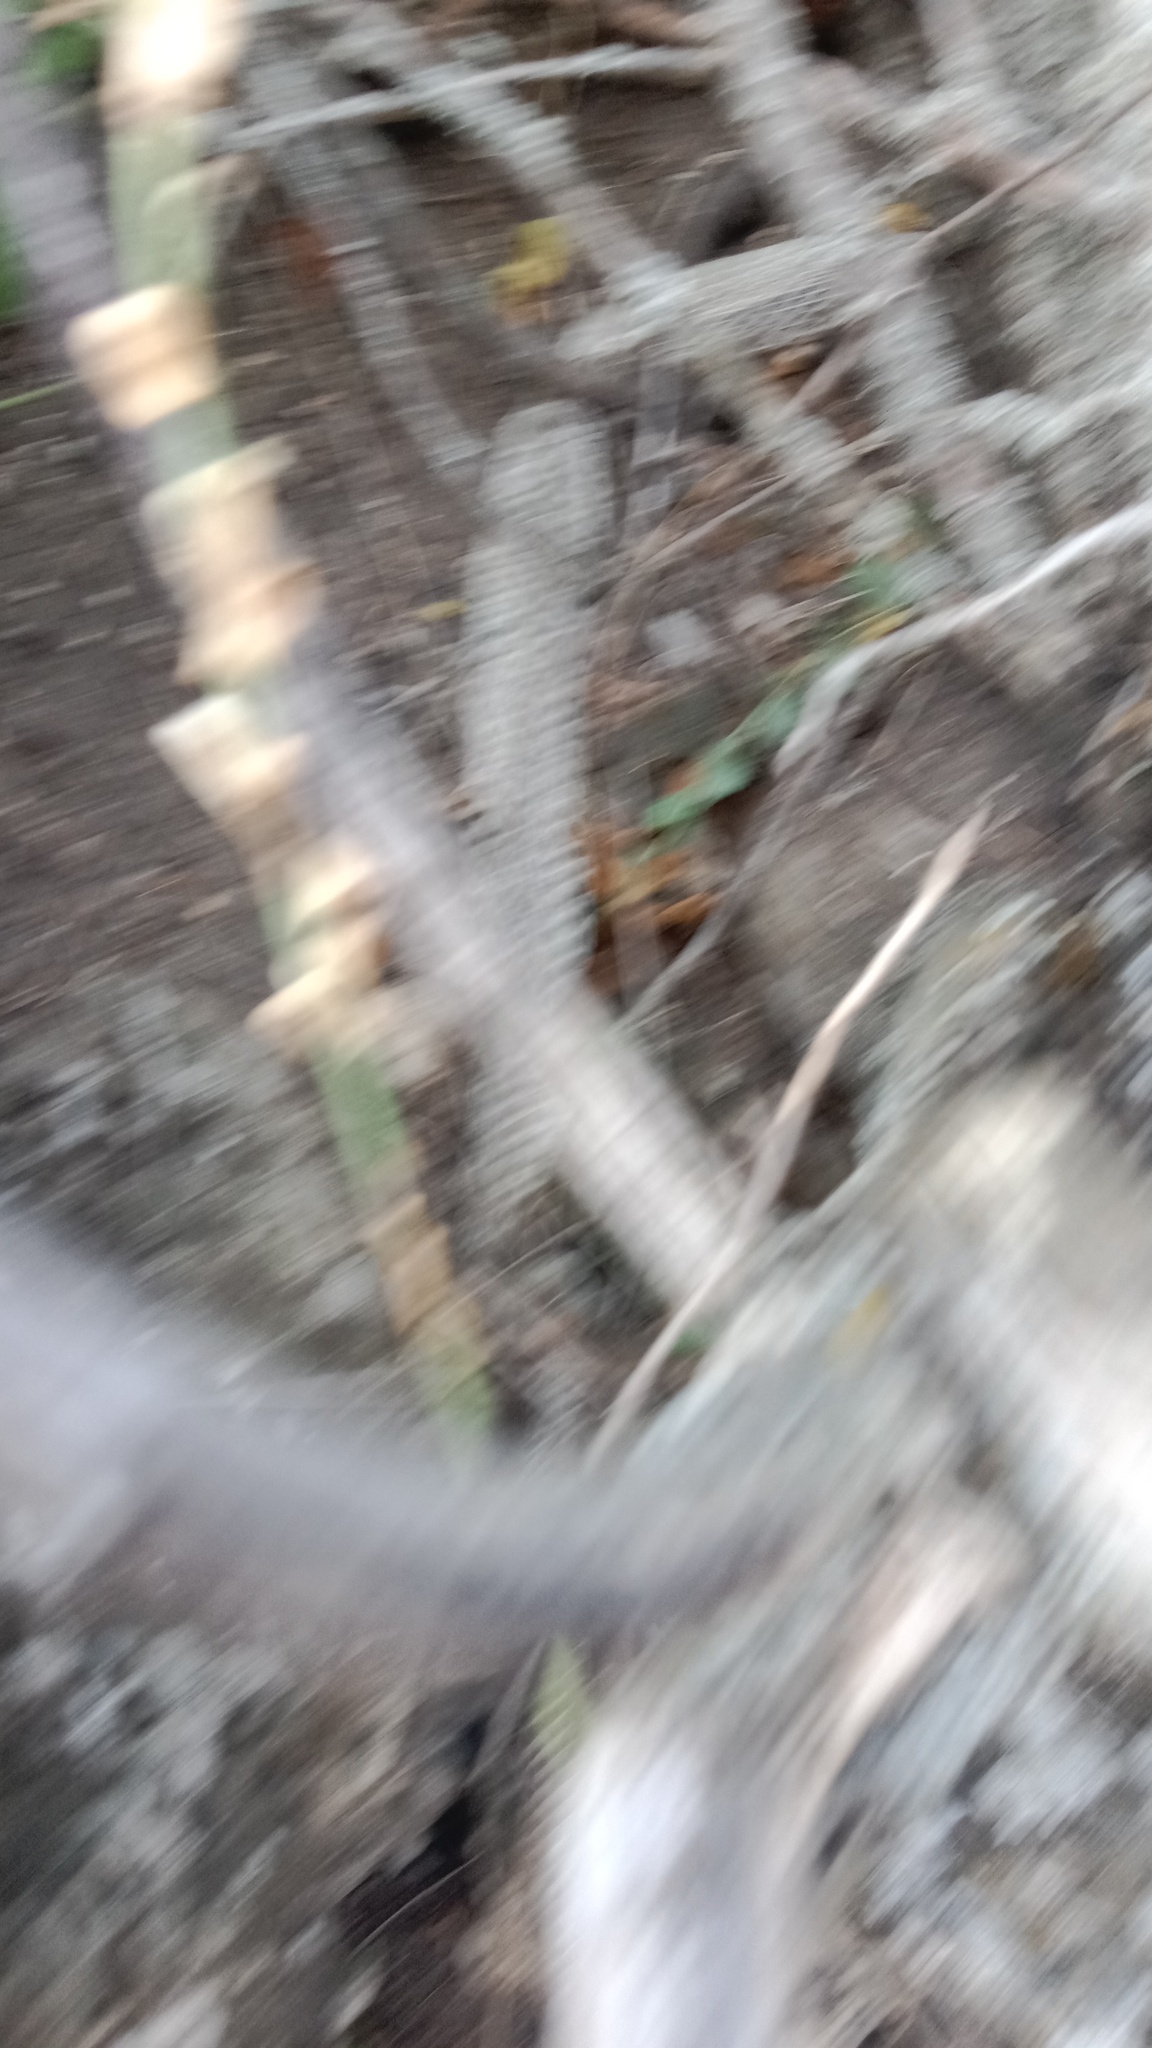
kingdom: Animalia
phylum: Chordata
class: Squamata
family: Colubridae
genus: Elaphe
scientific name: Elaphe sauromates
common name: Eastern four-lined ratsnake
